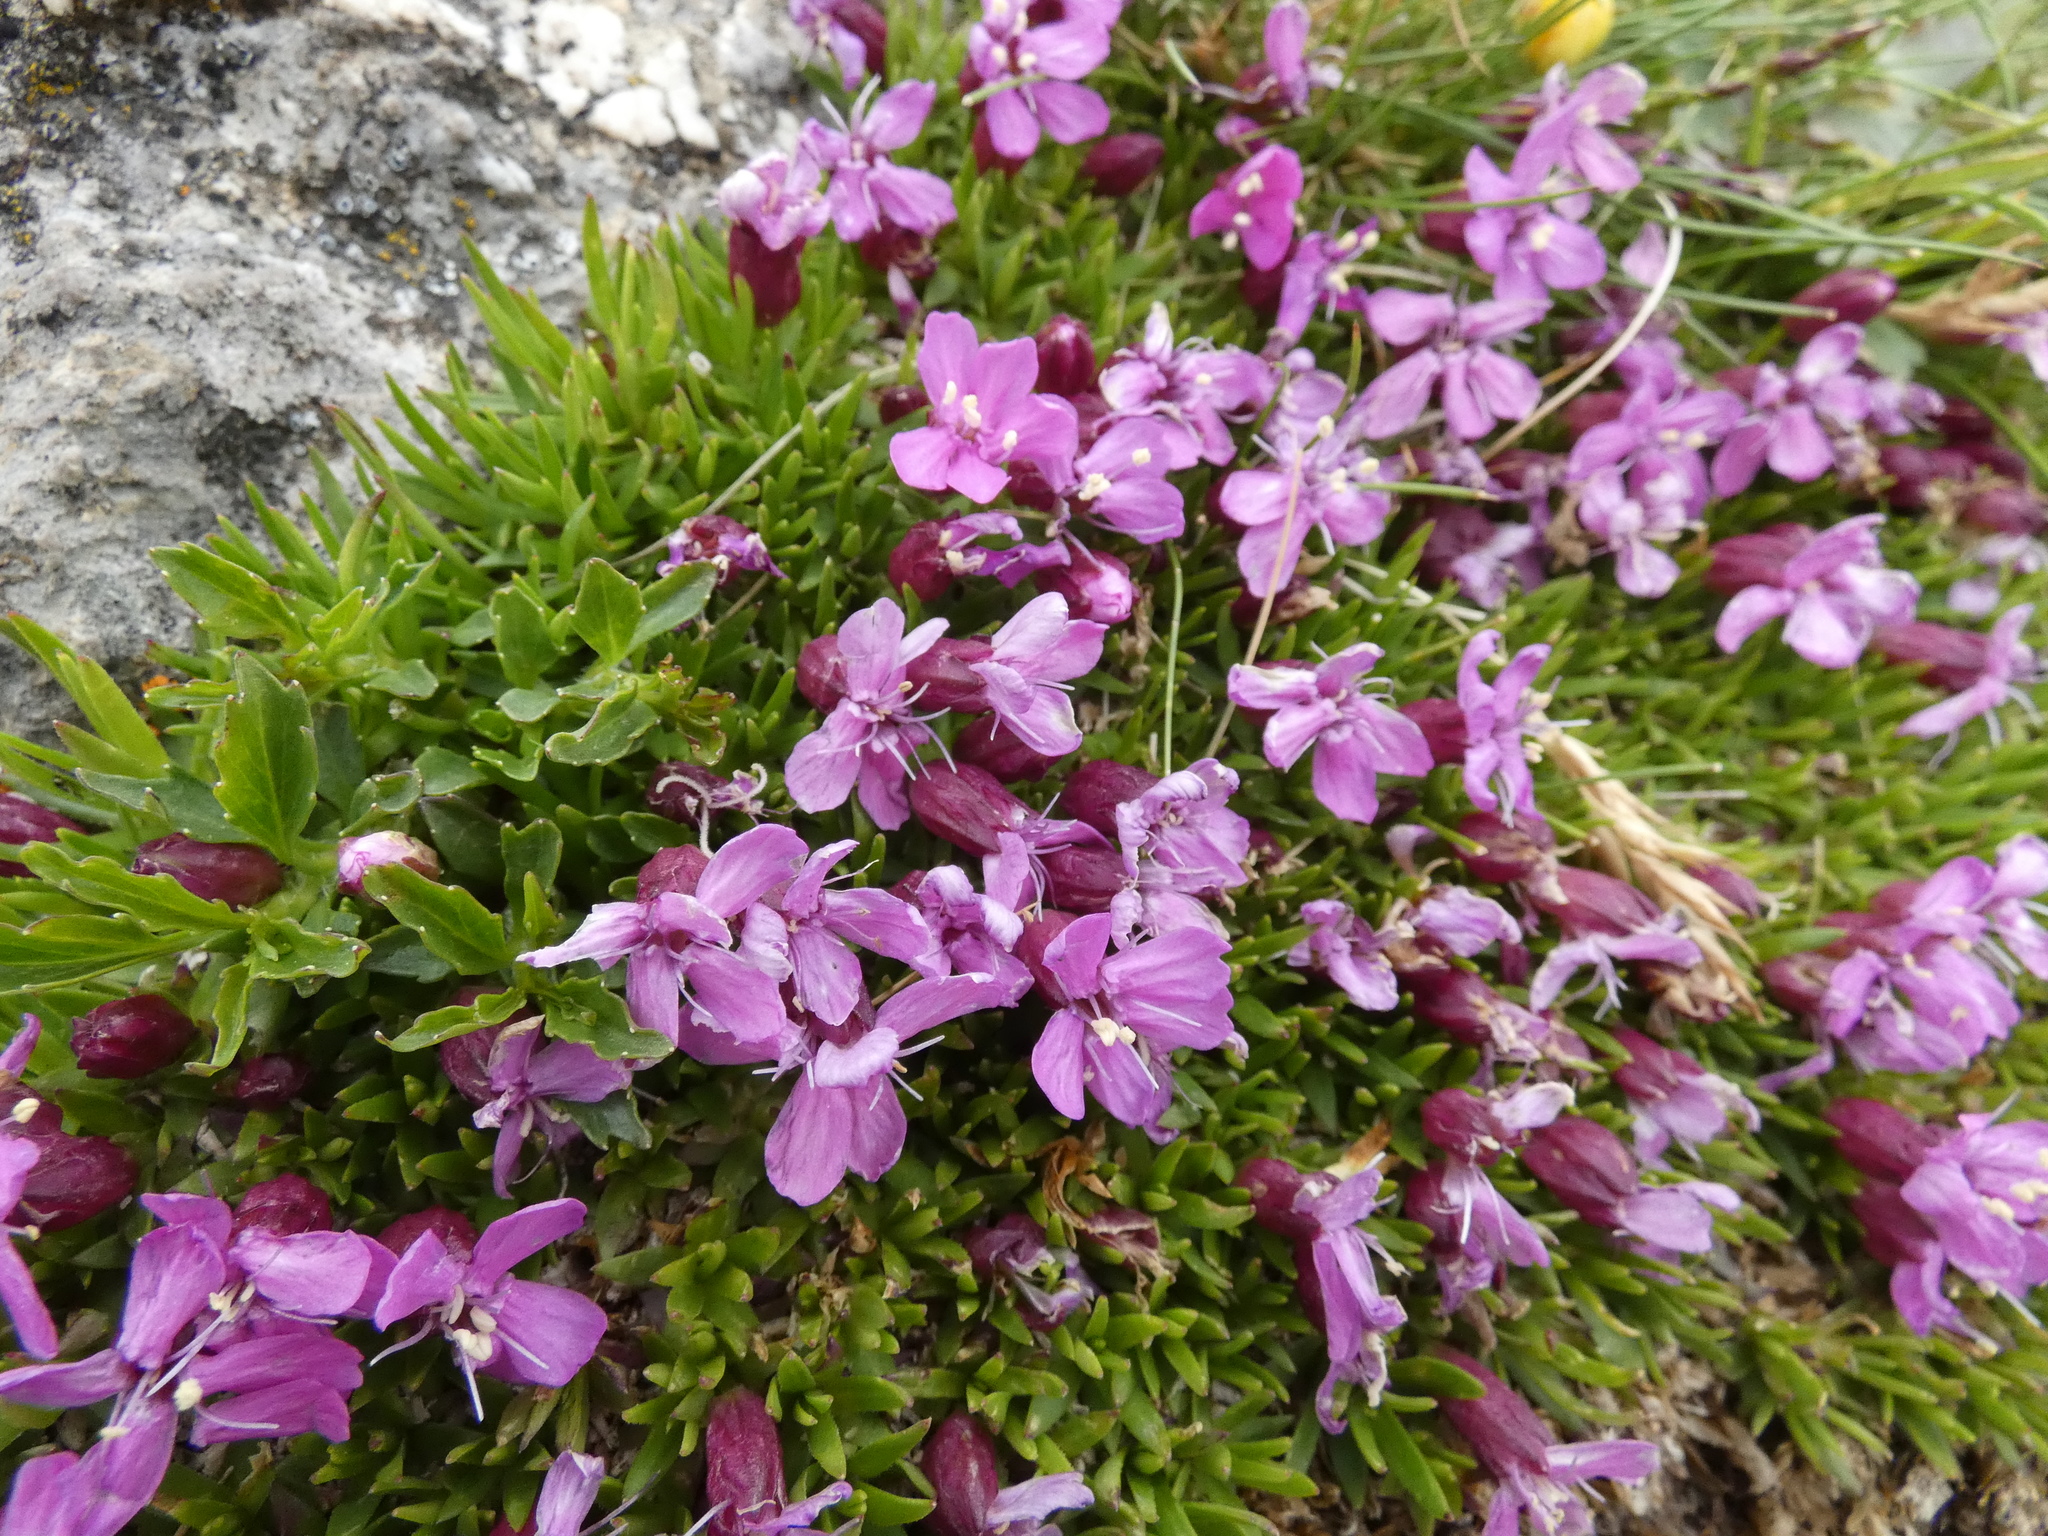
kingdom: Plantae
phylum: Tracheophyta
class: Magnoliopsida
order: Caryophyllales
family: Caryophyllaceae
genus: Silene
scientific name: Silene acaulis
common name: Moss campion
